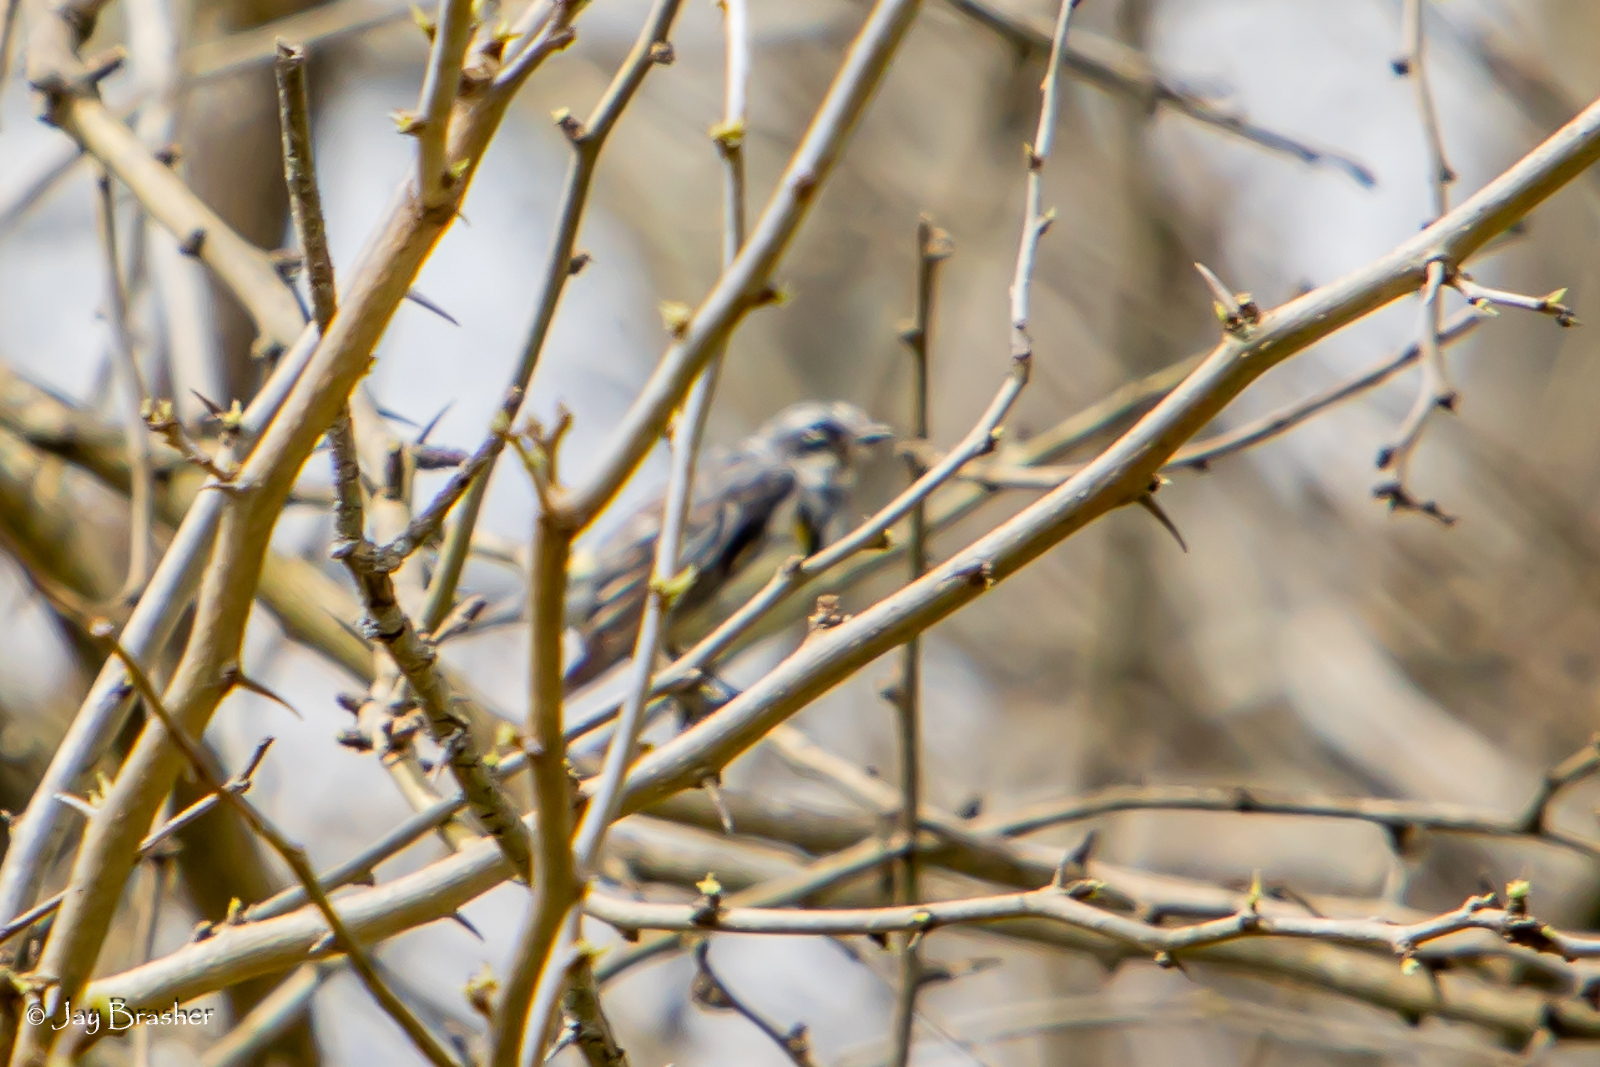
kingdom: Animalia
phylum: Chordata
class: Aves
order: Passeriformes
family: Parulidae
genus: Setophaga
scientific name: Setophaga coronata
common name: Myrtle warbler
